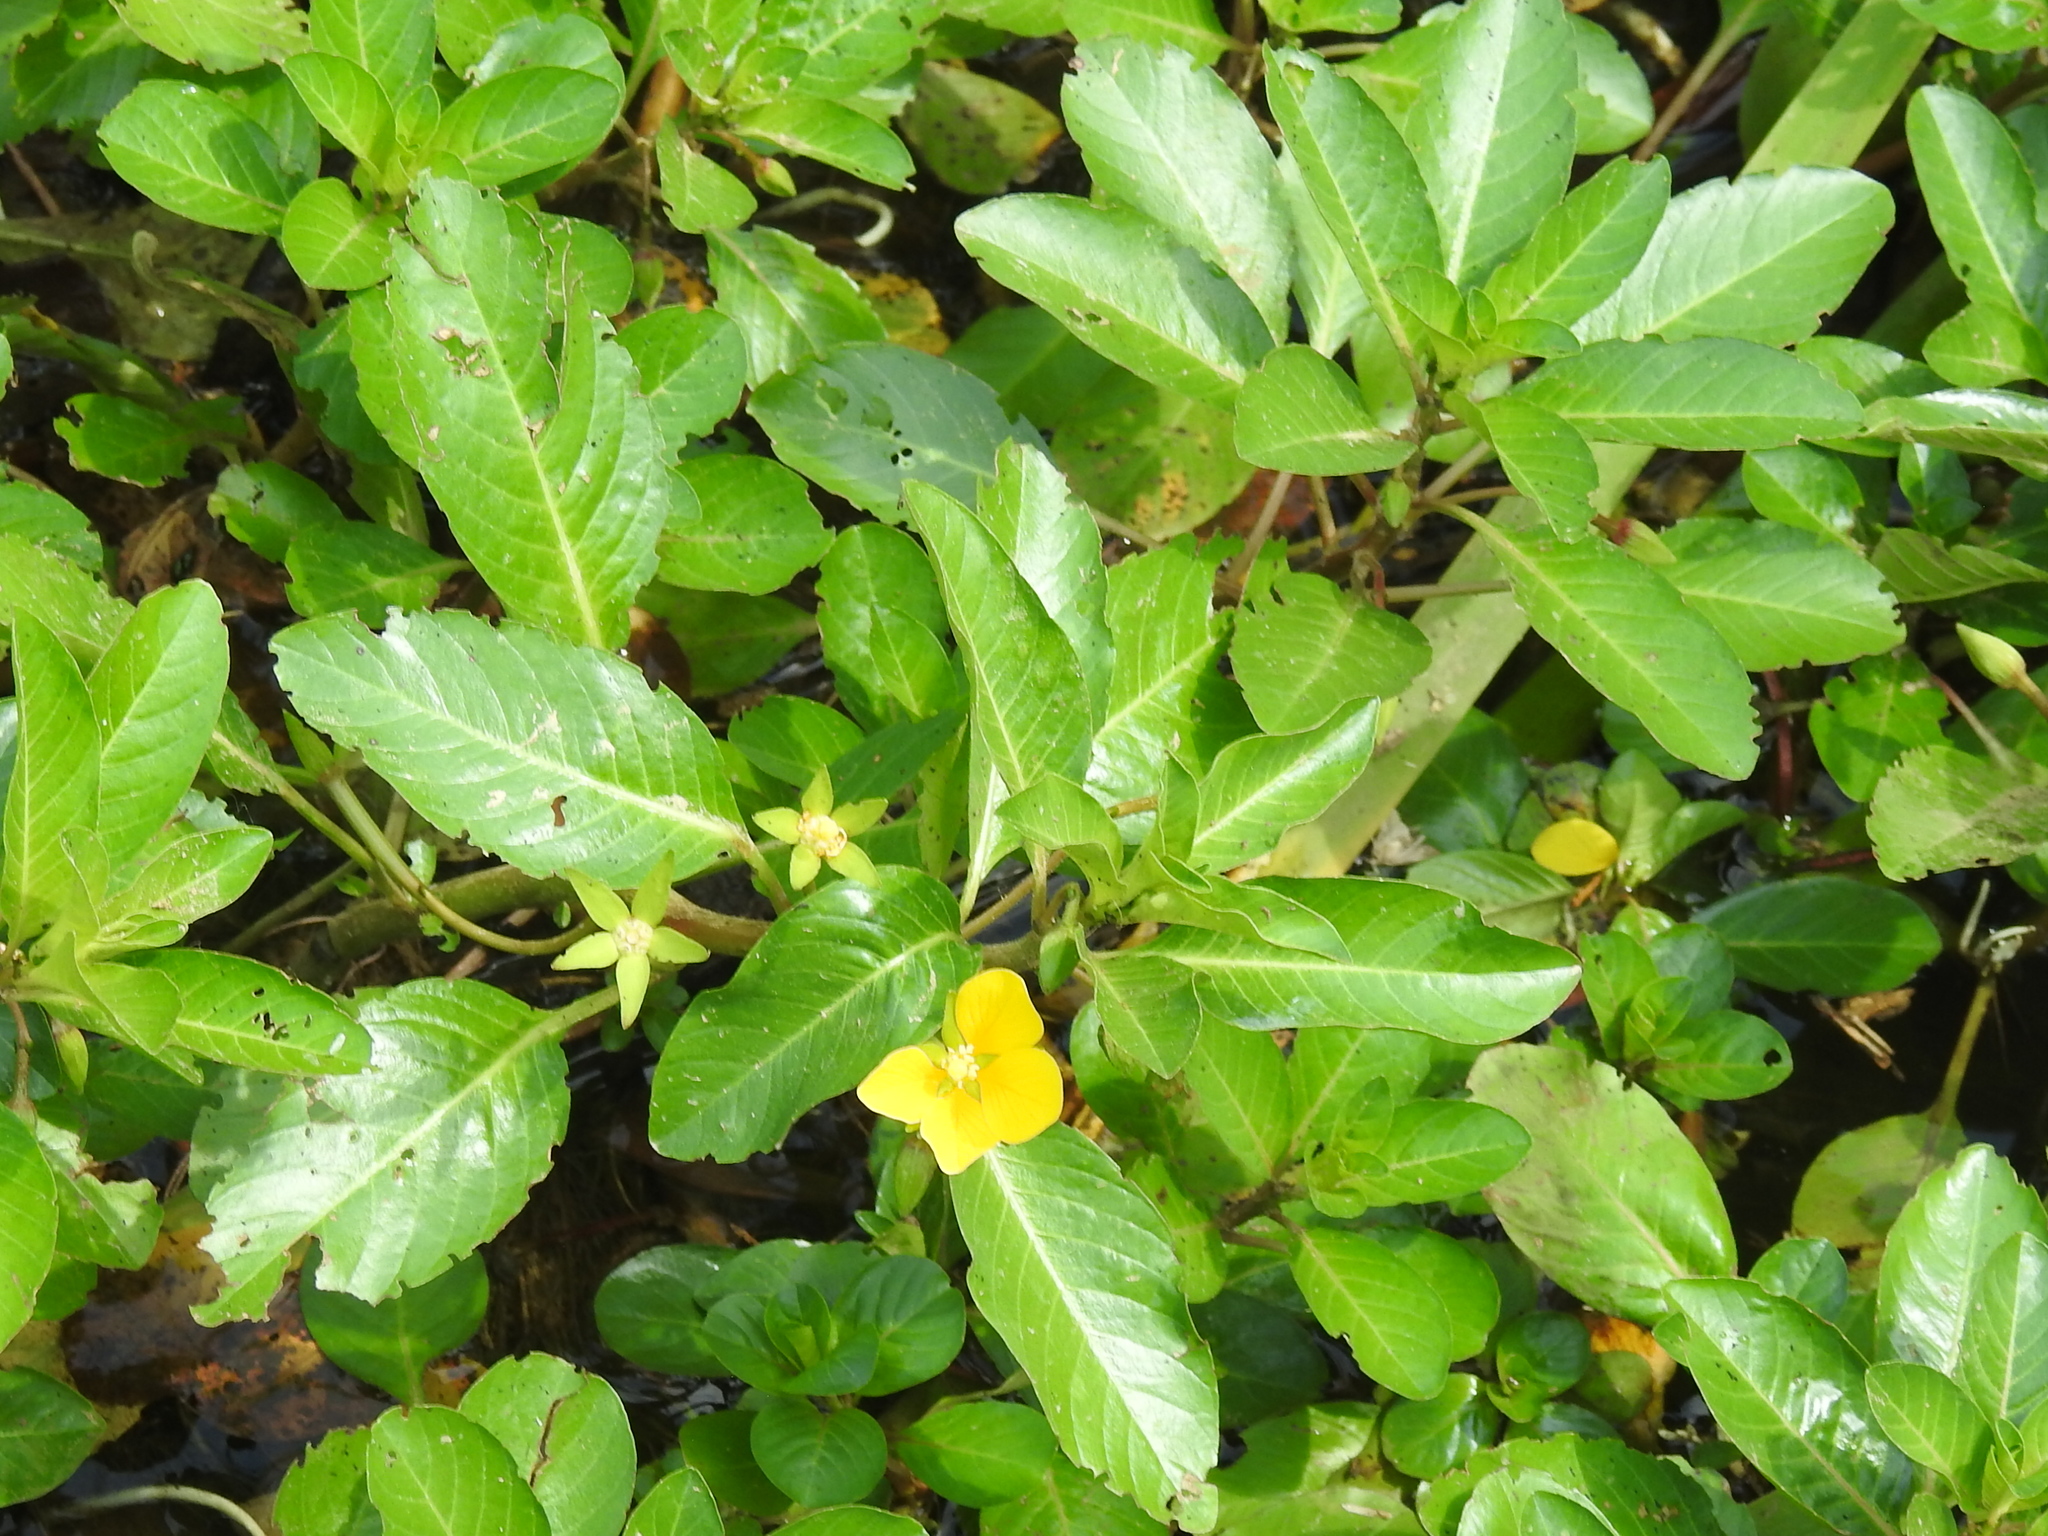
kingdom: Plantae
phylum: Tracheophyta
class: Magnoliopsida
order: Myrtales
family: Onagraceae
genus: Ludwigia
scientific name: Ludwigia peploides
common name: Floating primrose-willow
